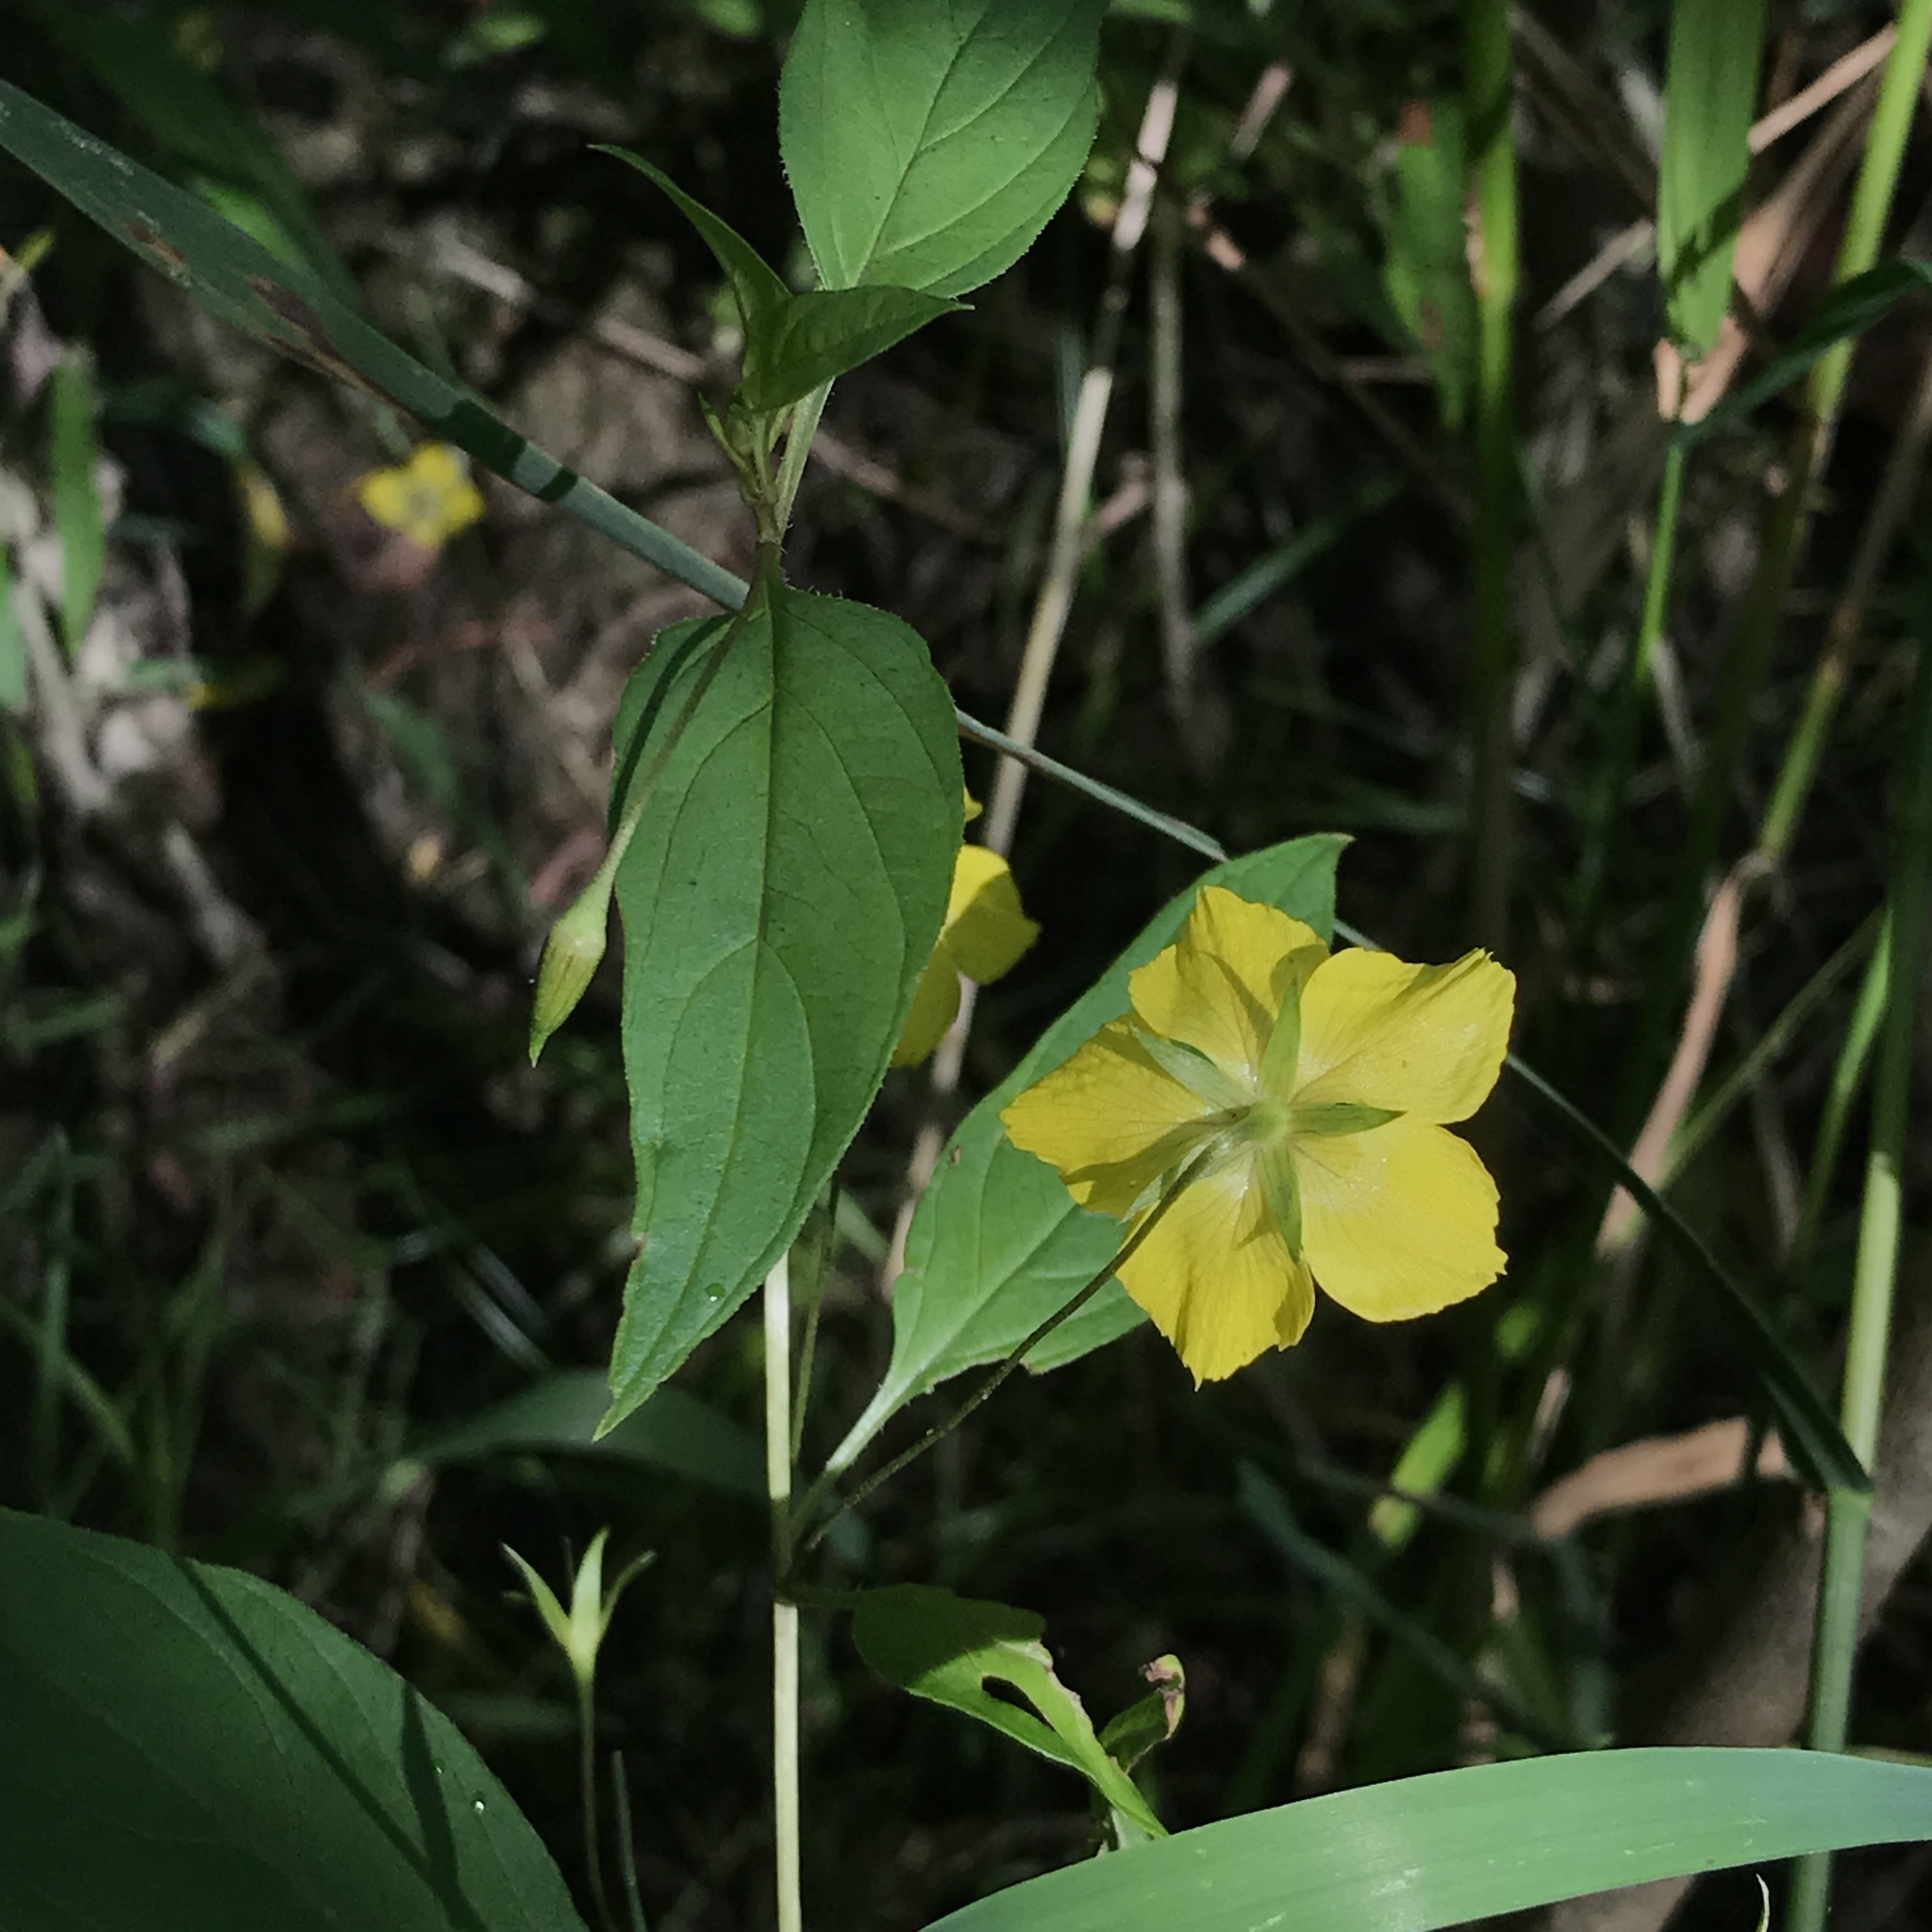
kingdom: Plantae
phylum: Tracheophyta
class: Magnoliopsida
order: Ericales
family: Primulaceae
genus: Lysimachia
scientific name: Lysimachia ciliata
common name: Fringed loosestrife
